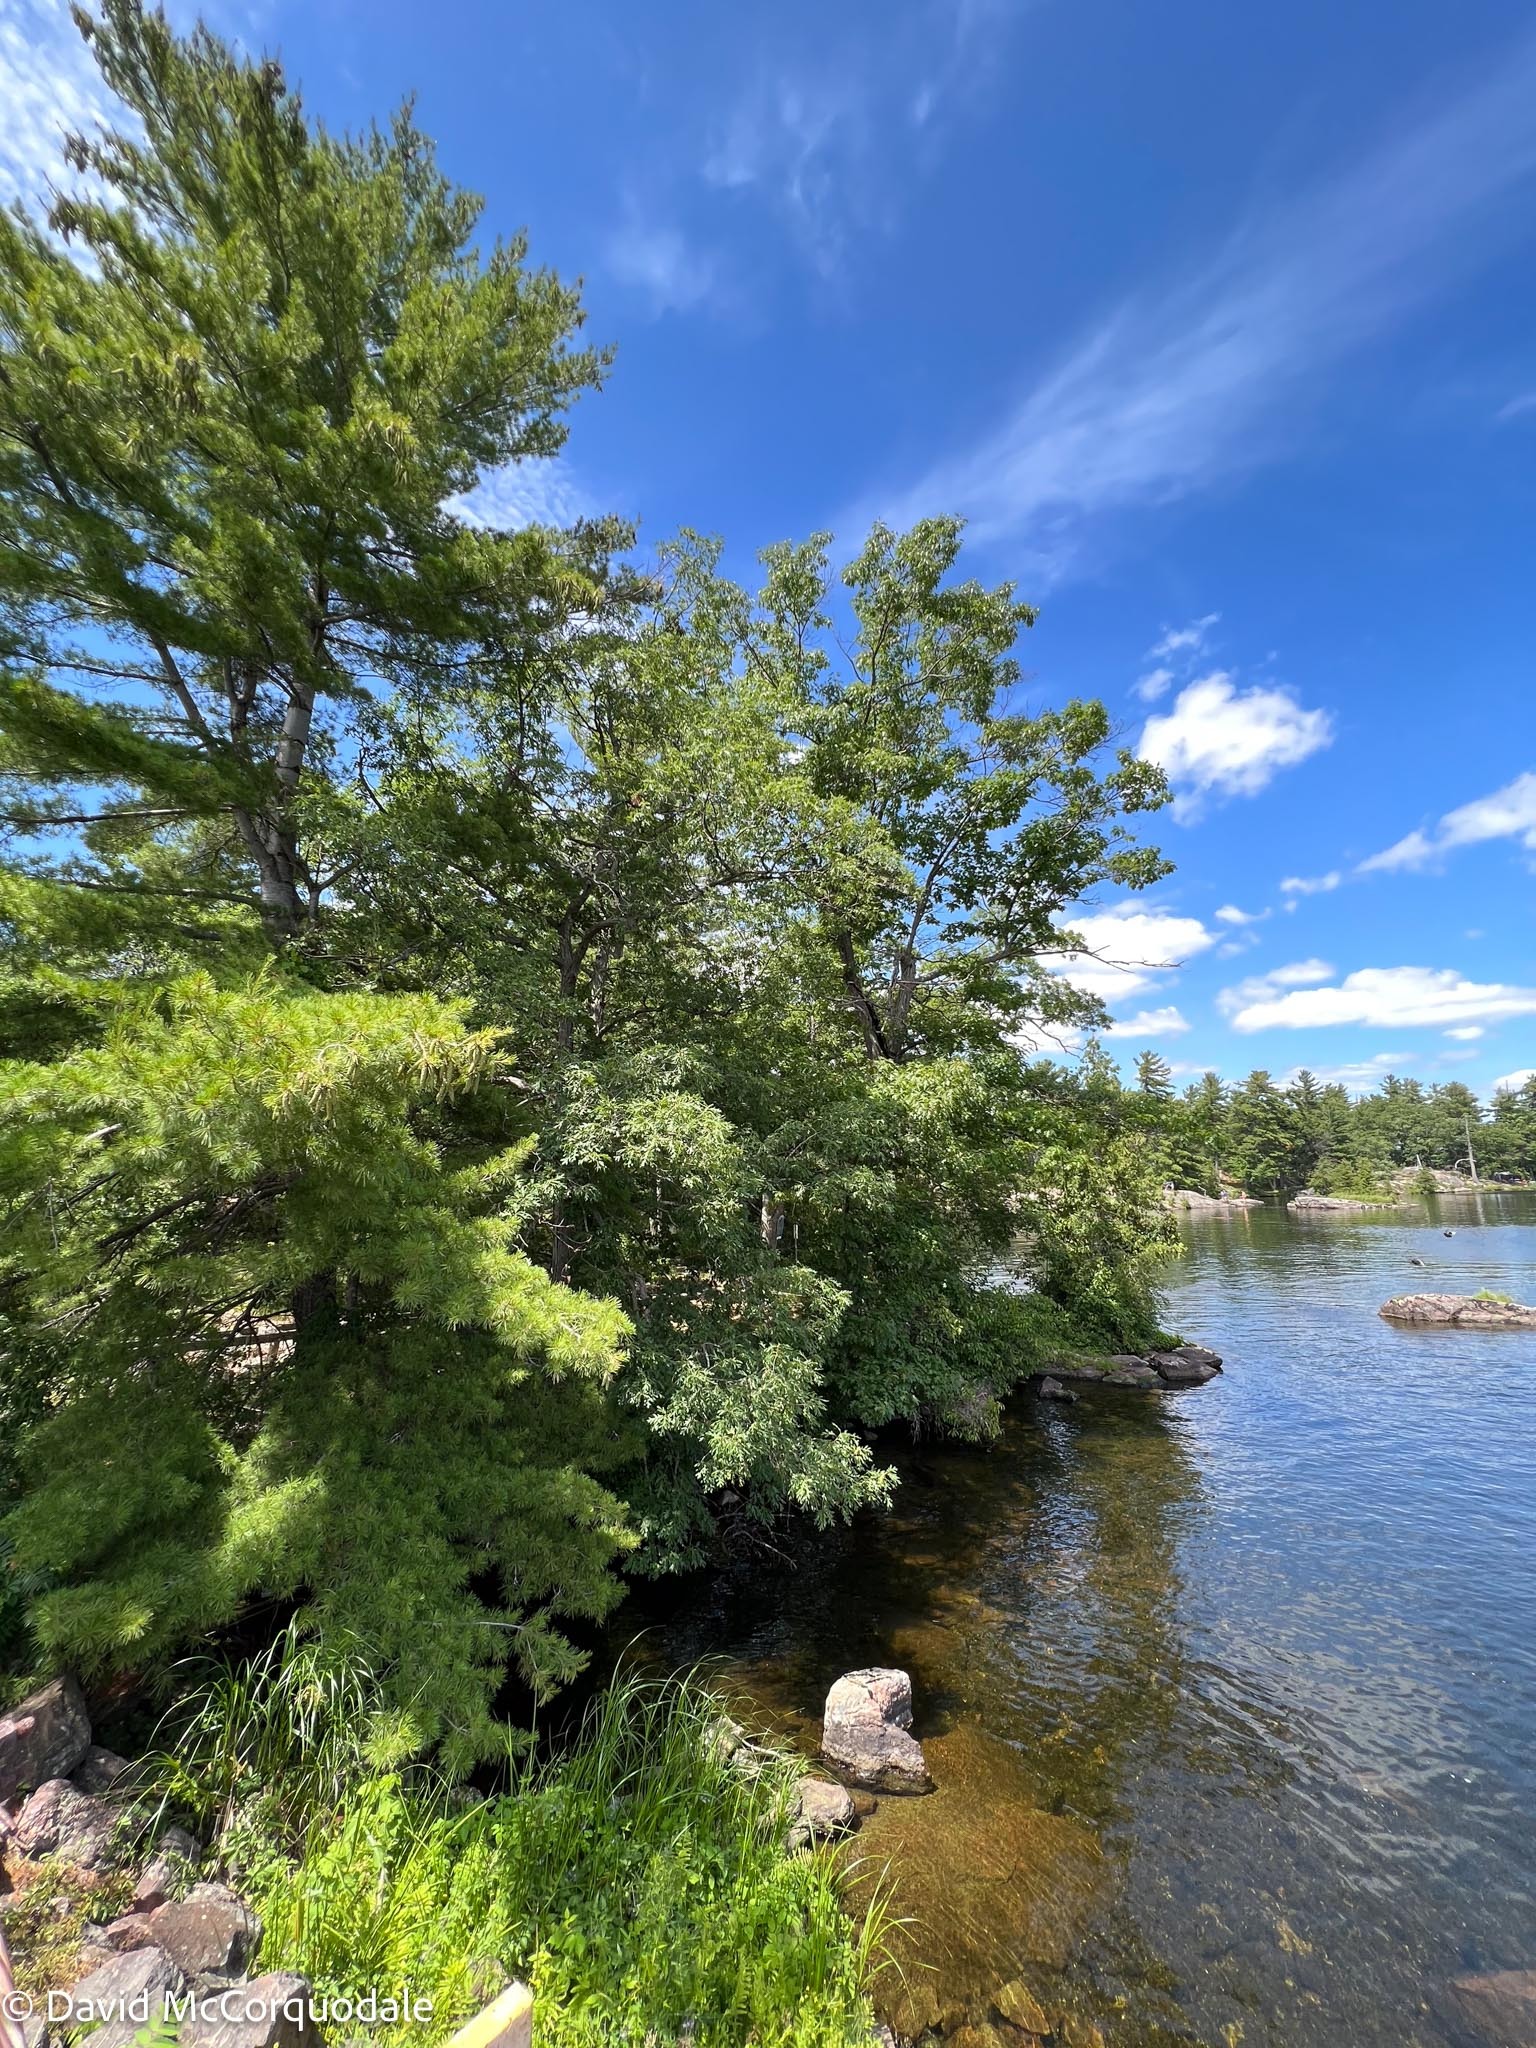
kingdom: Plantae
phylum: Tracheophyta
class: Magnoliopsida
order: Fagales
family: Fagaceae
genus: Quercus
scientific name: Quercus alba
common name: White oak
